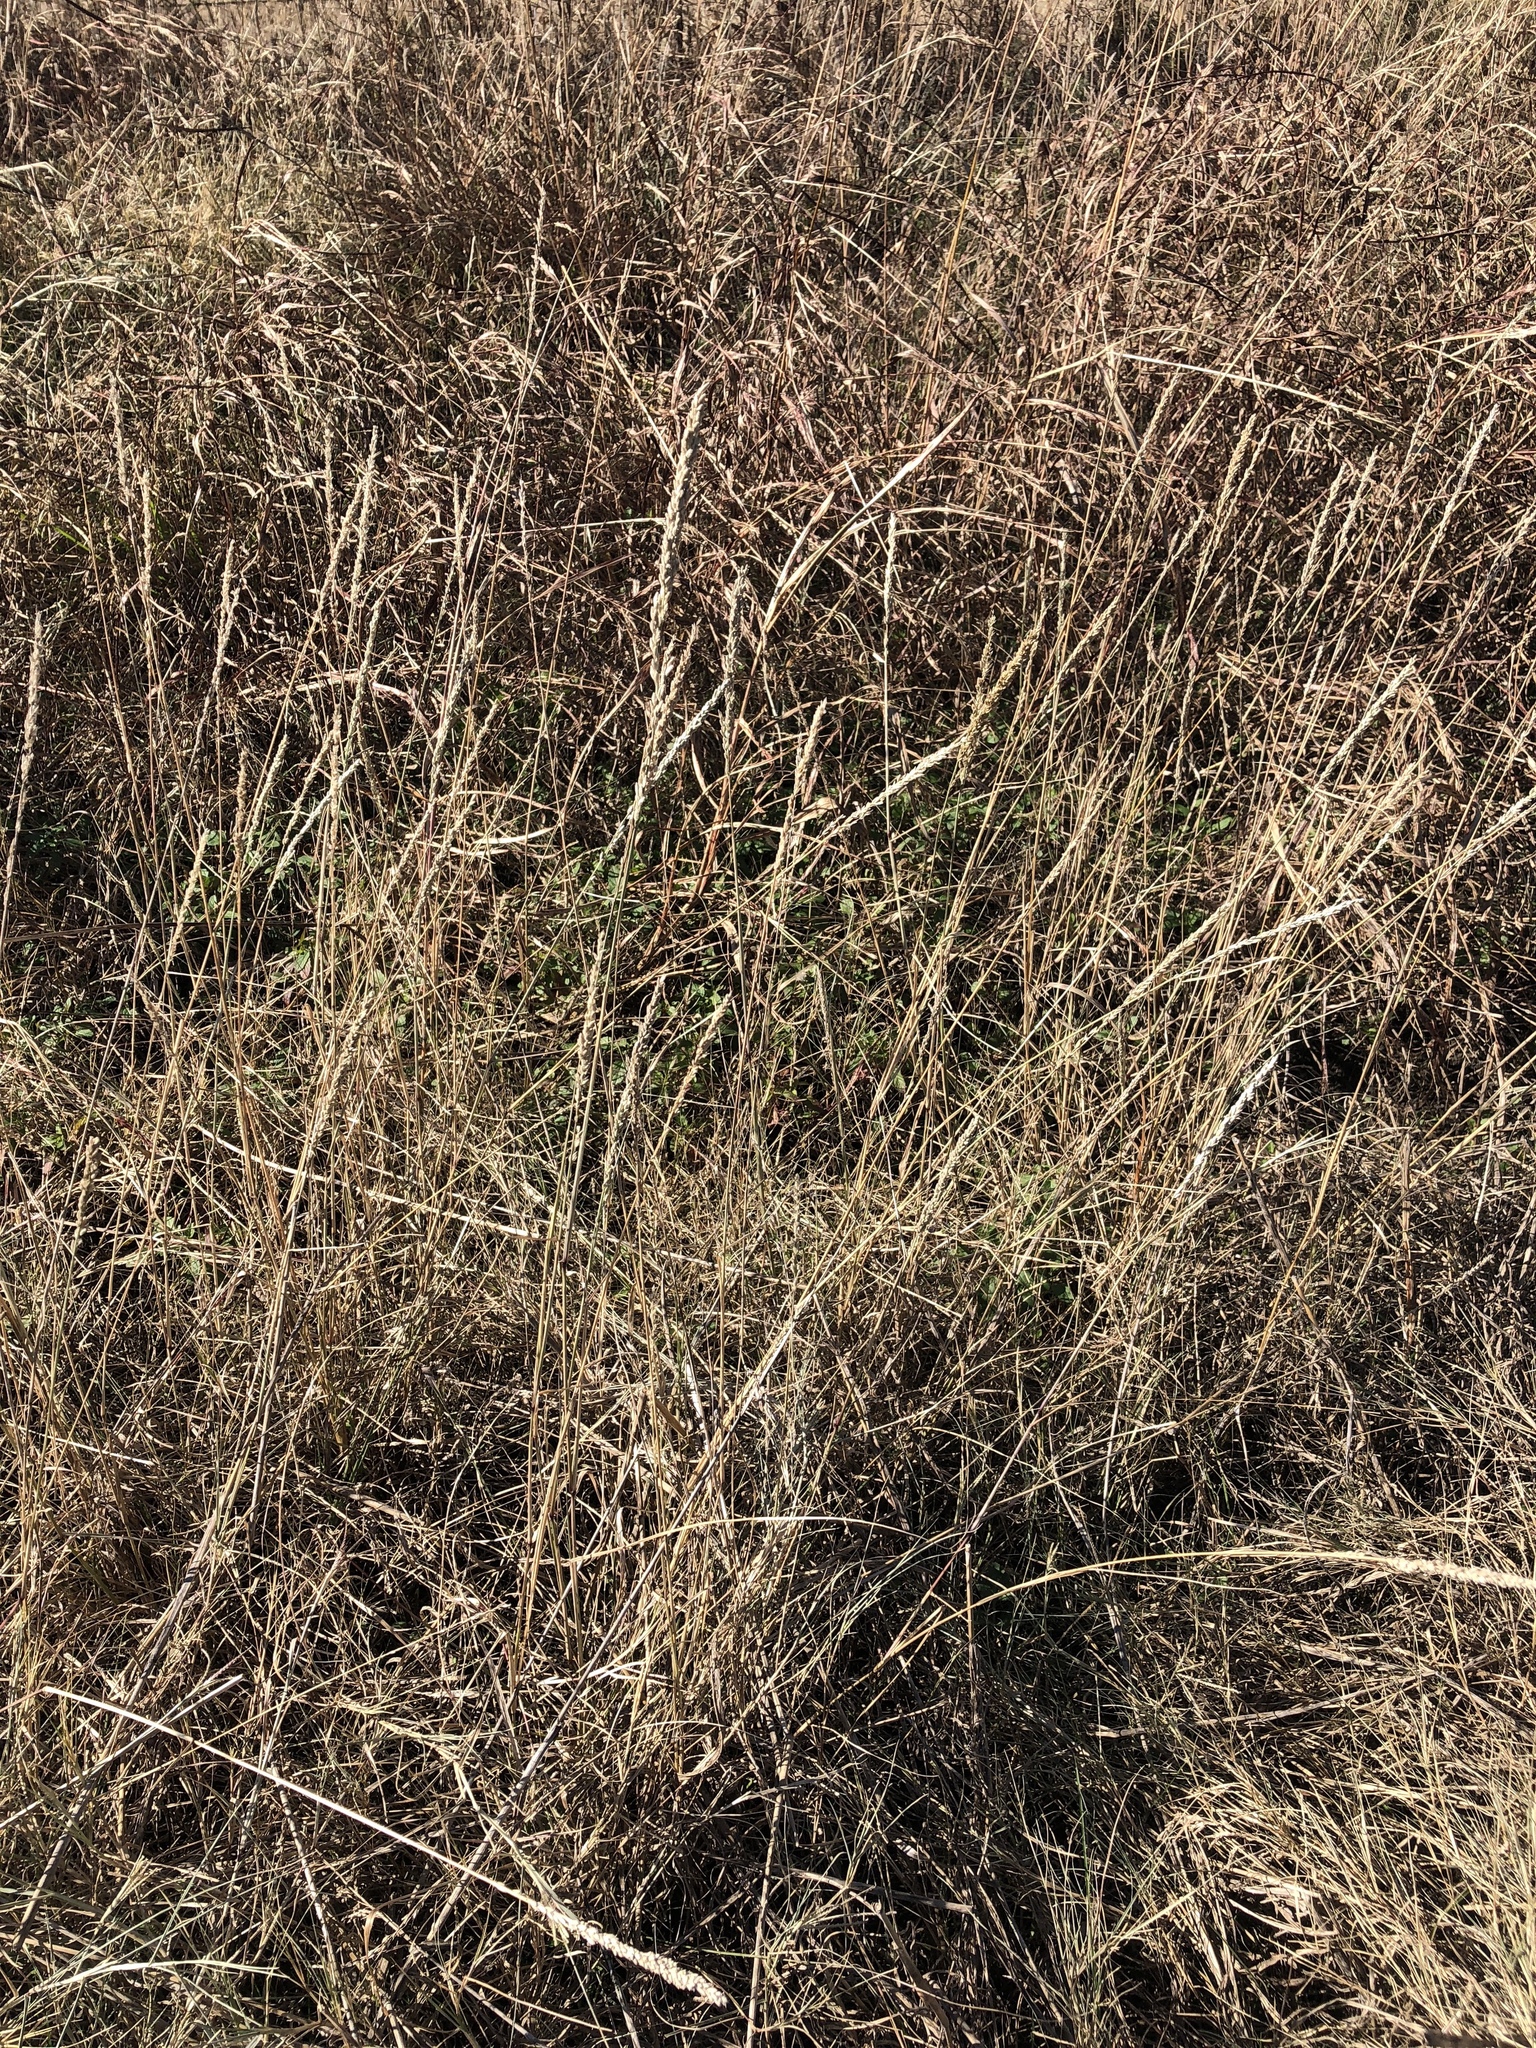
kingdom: Plantae
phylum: Tracheophyta
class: Liliopsida
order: Poales
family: Poaceae
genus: Tridens
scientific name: Tridens albescens
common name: White tridens
